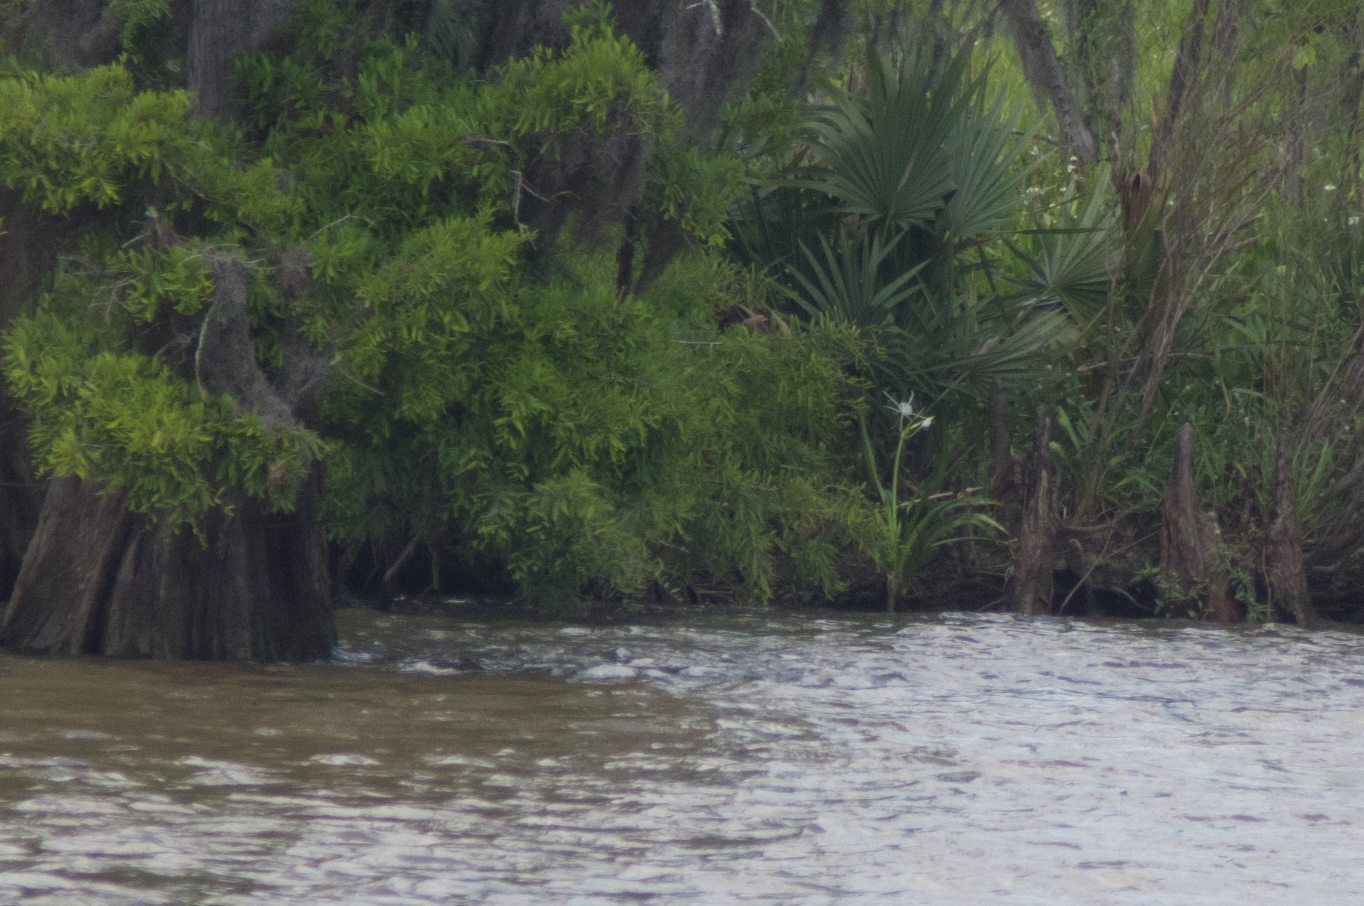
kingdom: Plantae
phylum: Tracheophyta
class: Pinopsida
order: Pinales
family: Cupressaceae
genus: Taxodium
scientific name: Taxodium distichum
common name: Bald cypress
